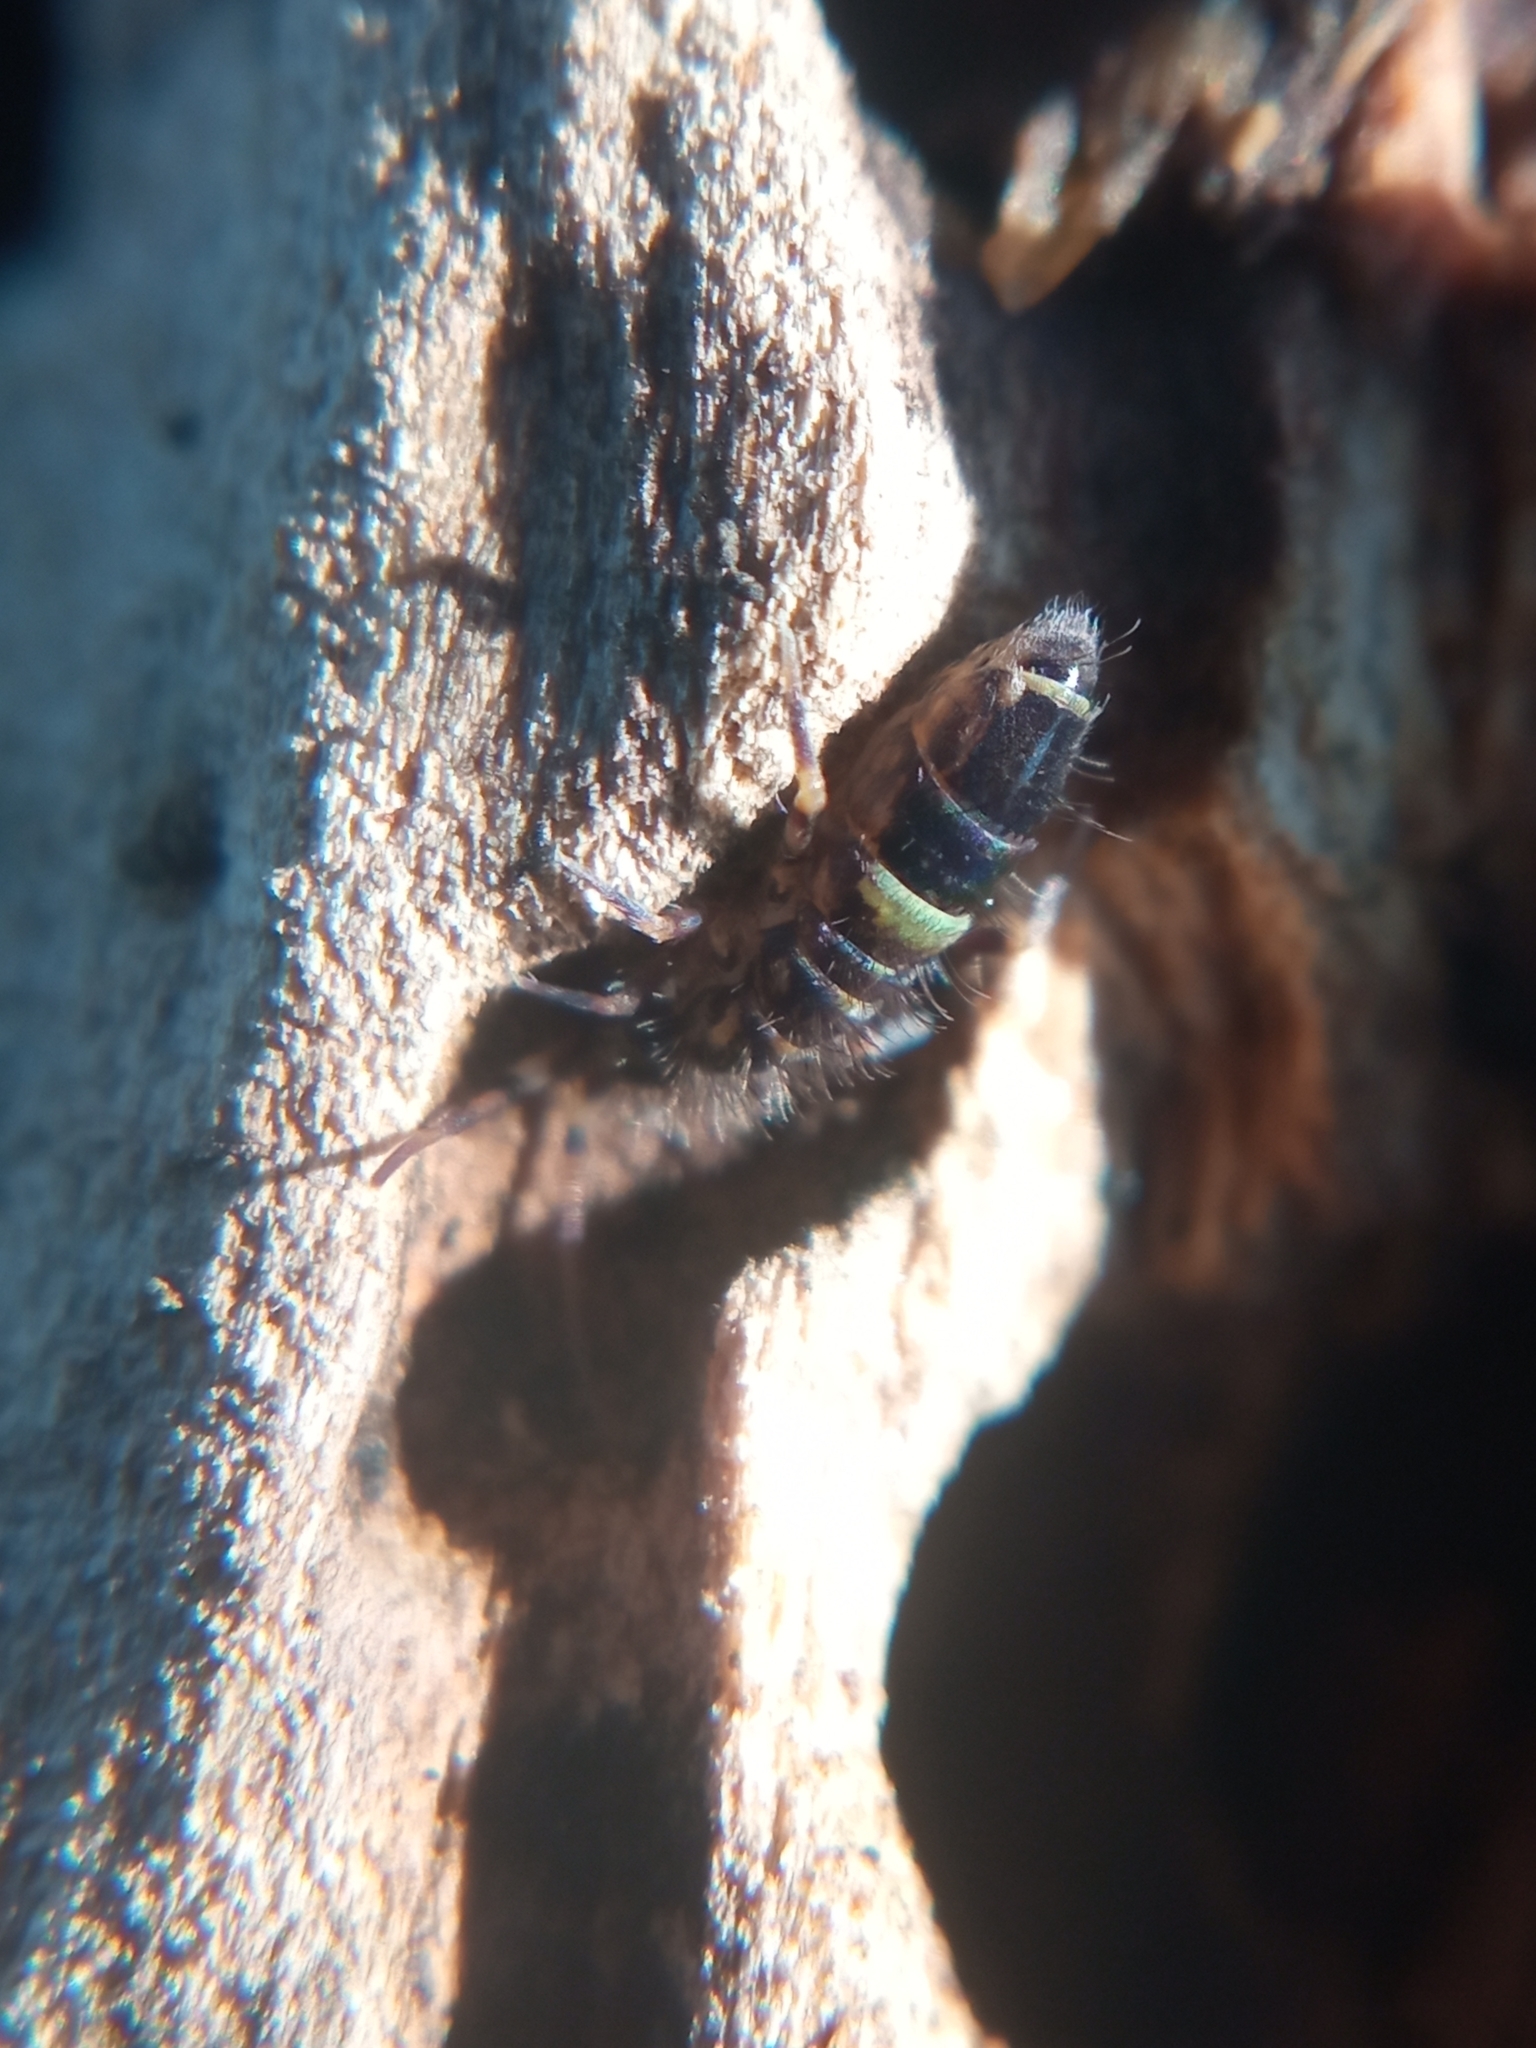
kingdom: Animalia
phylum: Arthropoda
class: Collembola
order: Entomobryomorpha
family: Orchesellidae
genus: Orchesella
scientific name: Orchesella cincta
